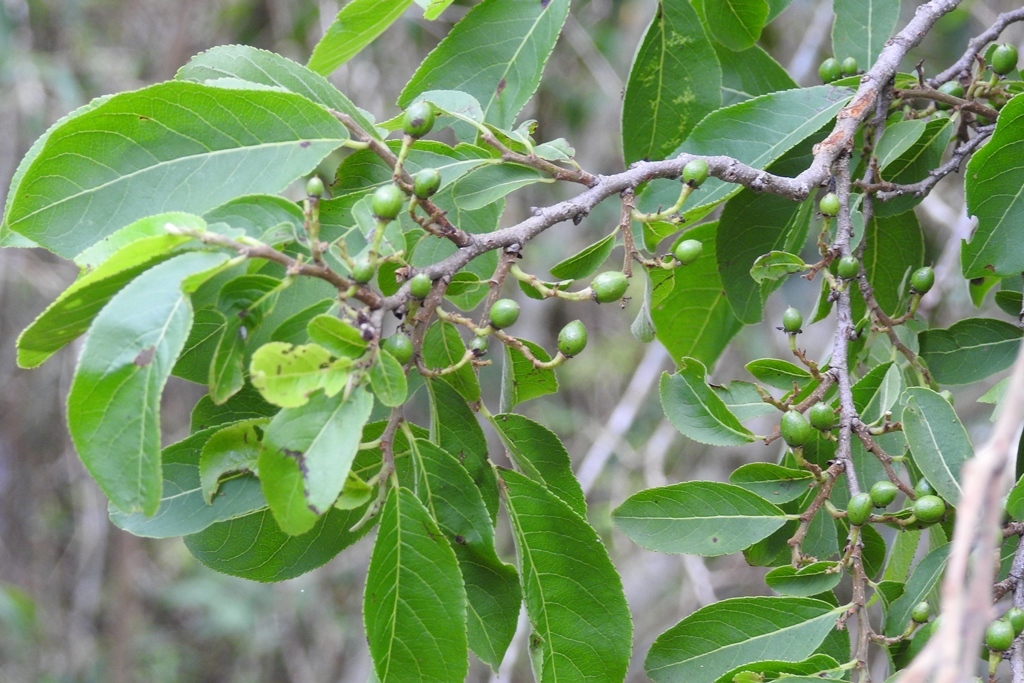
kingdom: Plantae
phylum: Tracheophyta
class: Magnoliopsida
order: Malpighiales
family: Salicaceae
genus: Casearia
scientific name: Casearia aculeata
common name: Cockspur
